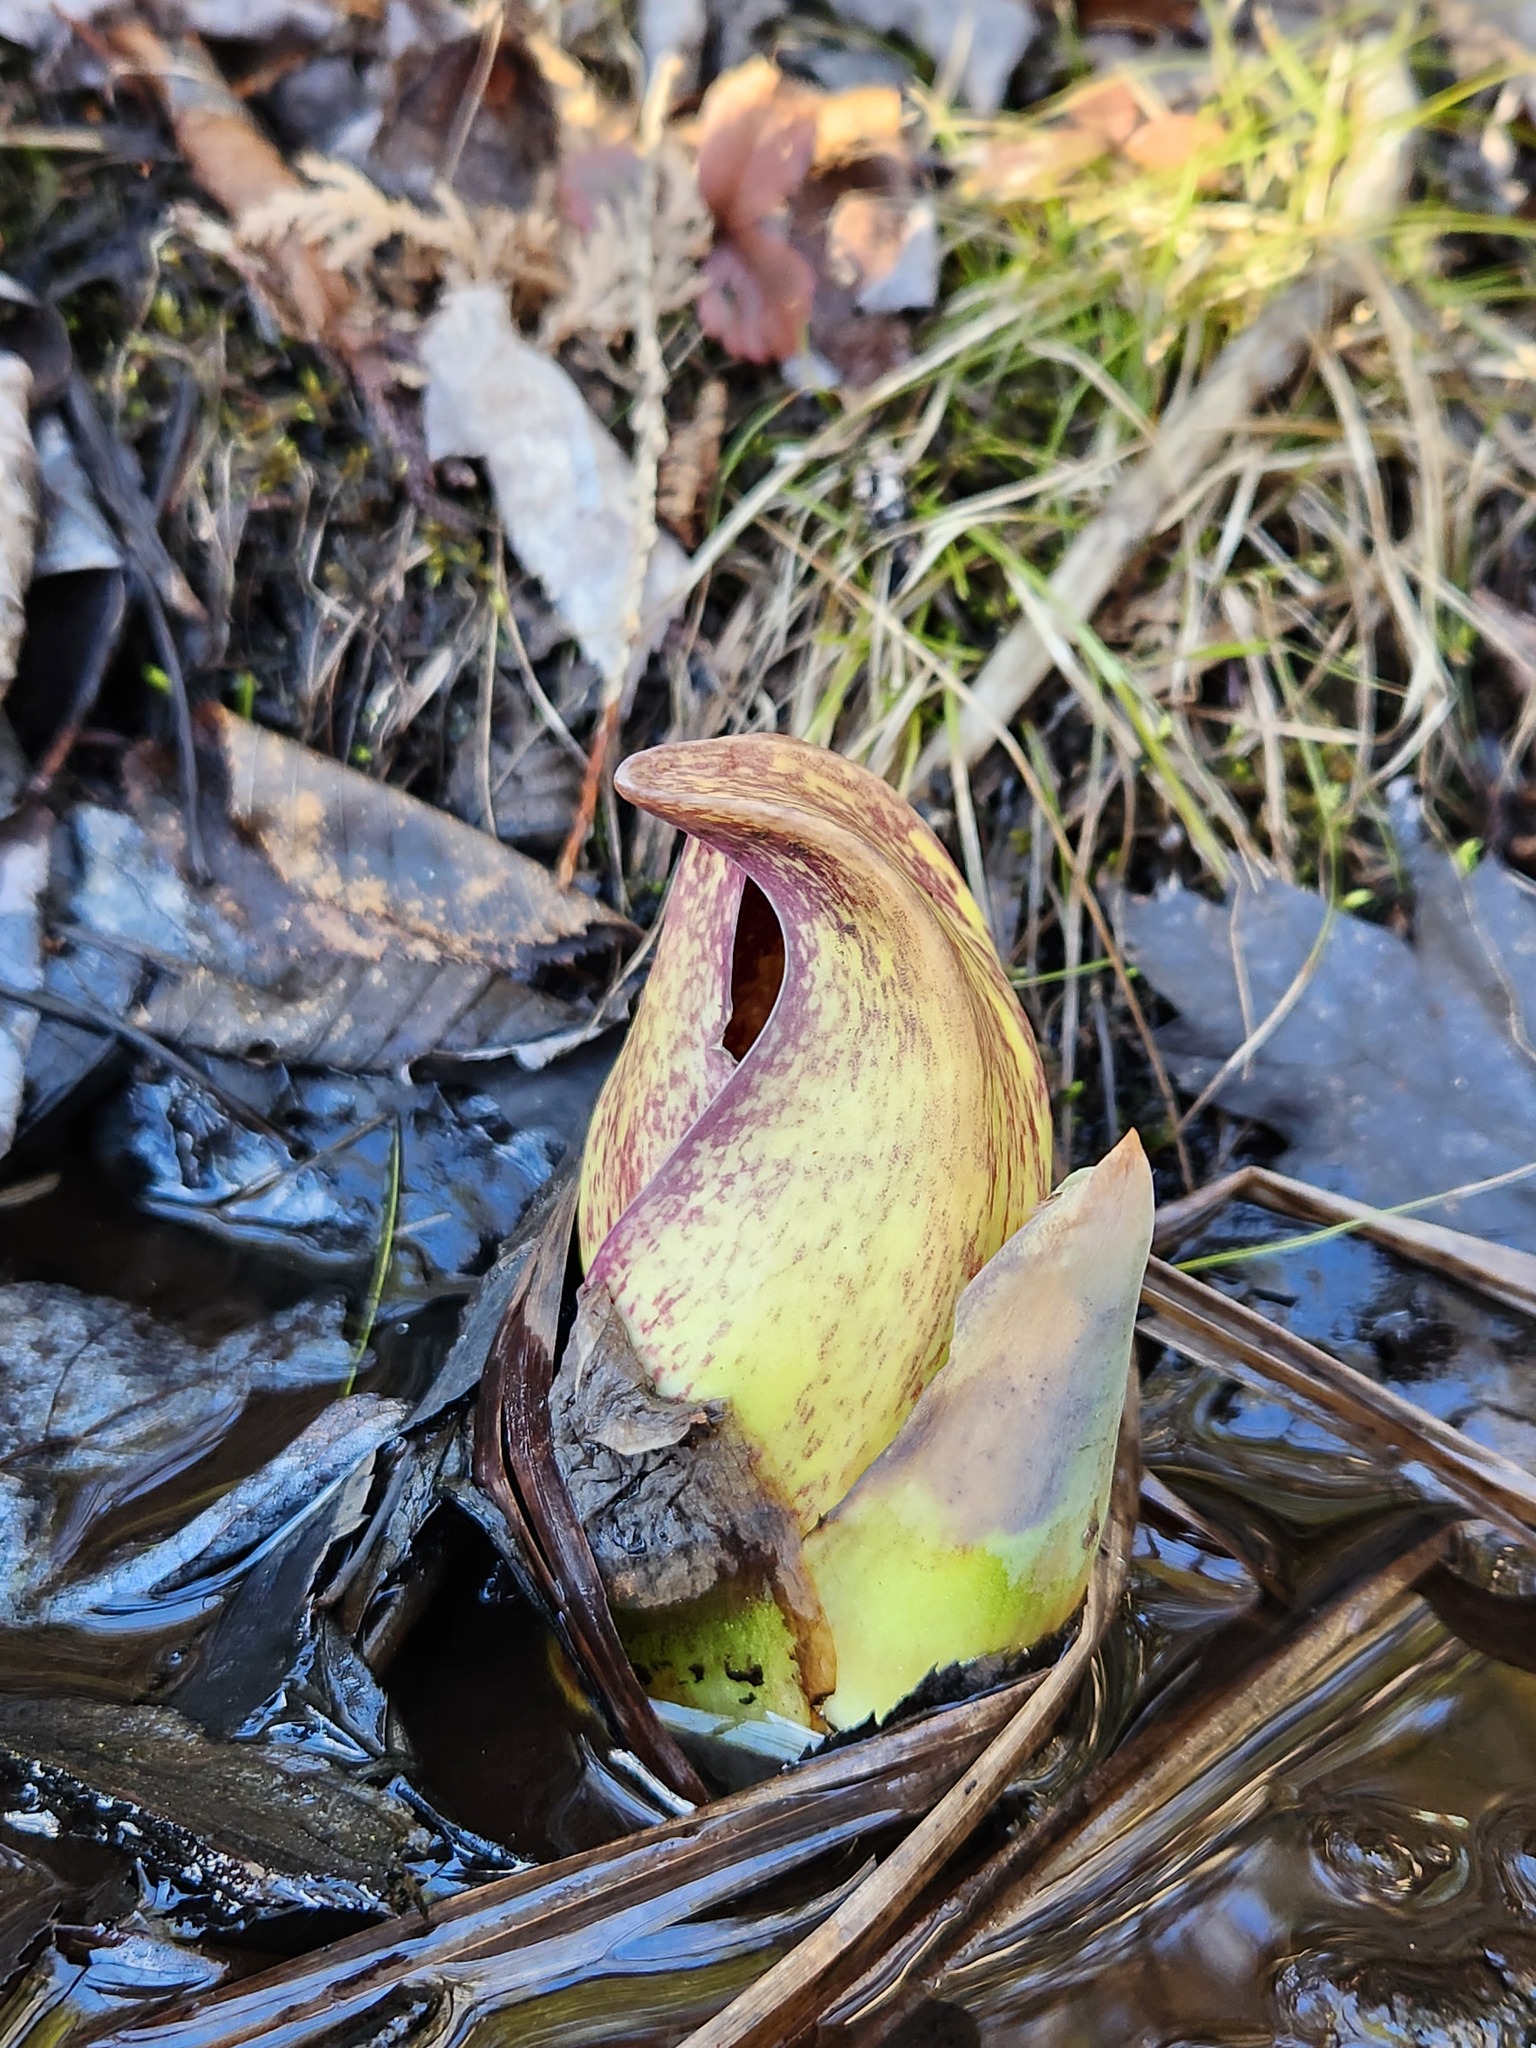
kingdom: Plantae
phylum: Tracheophyta
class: Liliopsida
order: Alismatales
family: Araceae
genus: Symplocarpus
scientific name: Symplocarpus foetidus
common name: Eastern skunk cabbage
